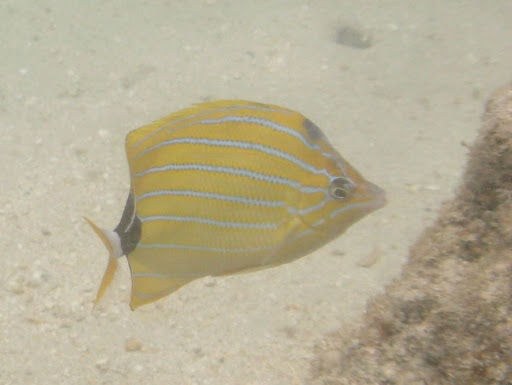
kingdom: Animalia
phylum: Chordata
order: Perciformes
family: Chaetodontidae
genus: Chaetodon
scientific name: Chaetodon fremblii
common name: Bluestriped butterflyfish
